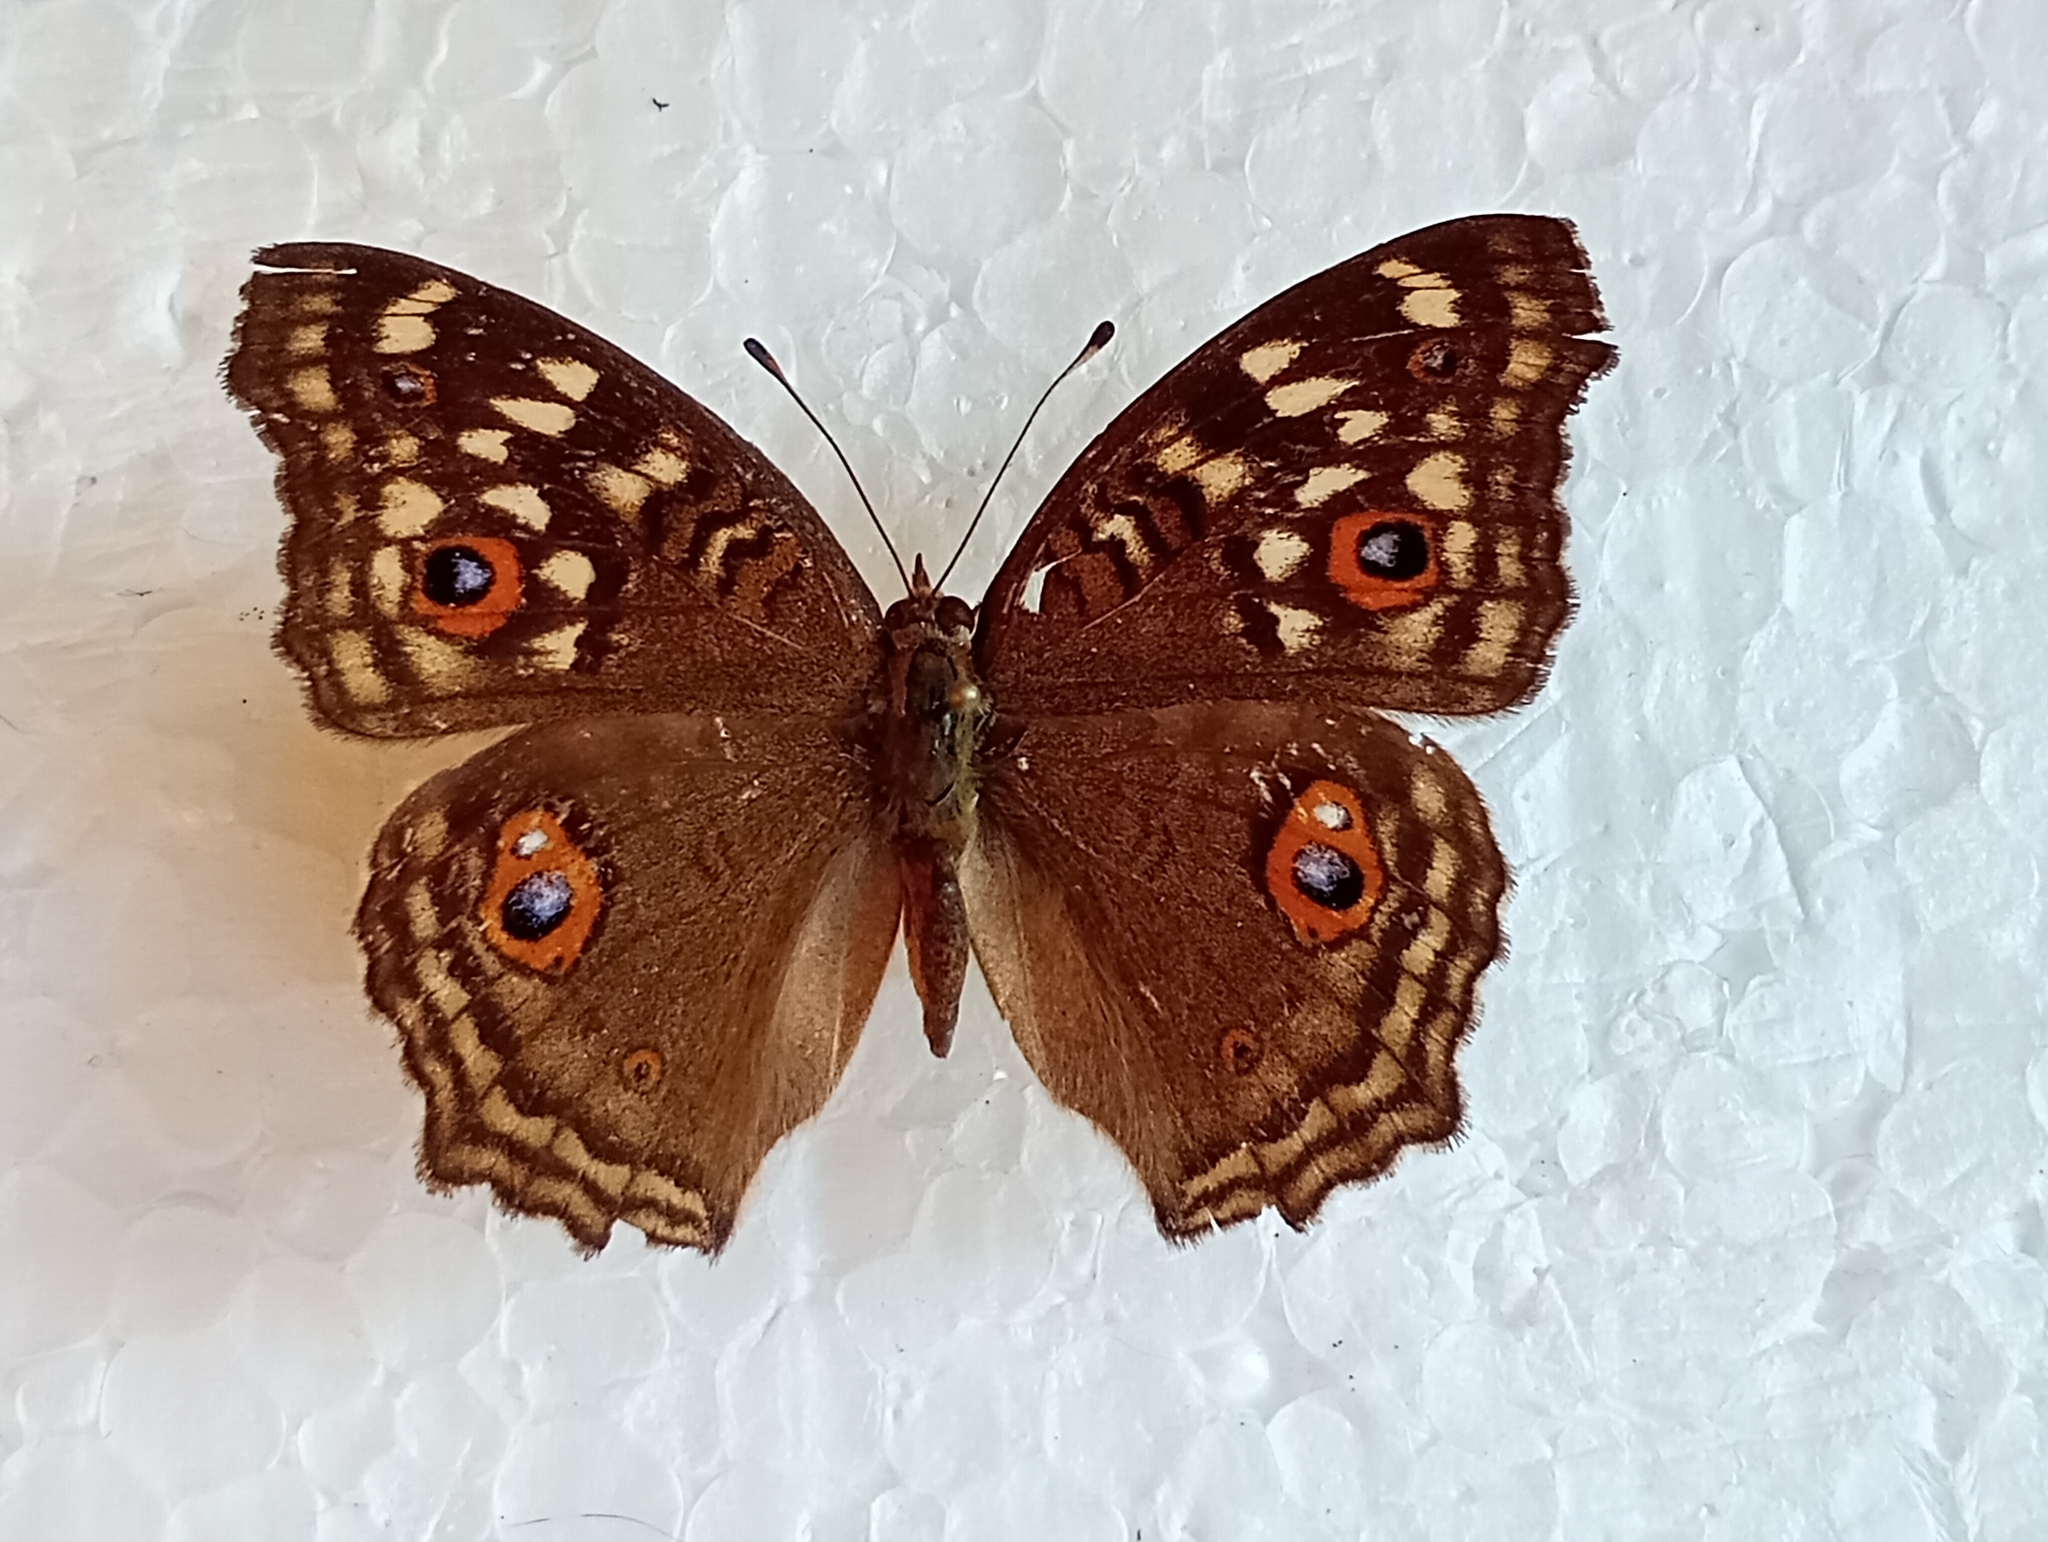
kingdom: Animalia
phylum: Arthropoda
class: Insecta
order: Lepidoptera
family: Nymphalidae
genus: Junonia
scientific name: Junonia lemonias
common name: Lemon pansy
